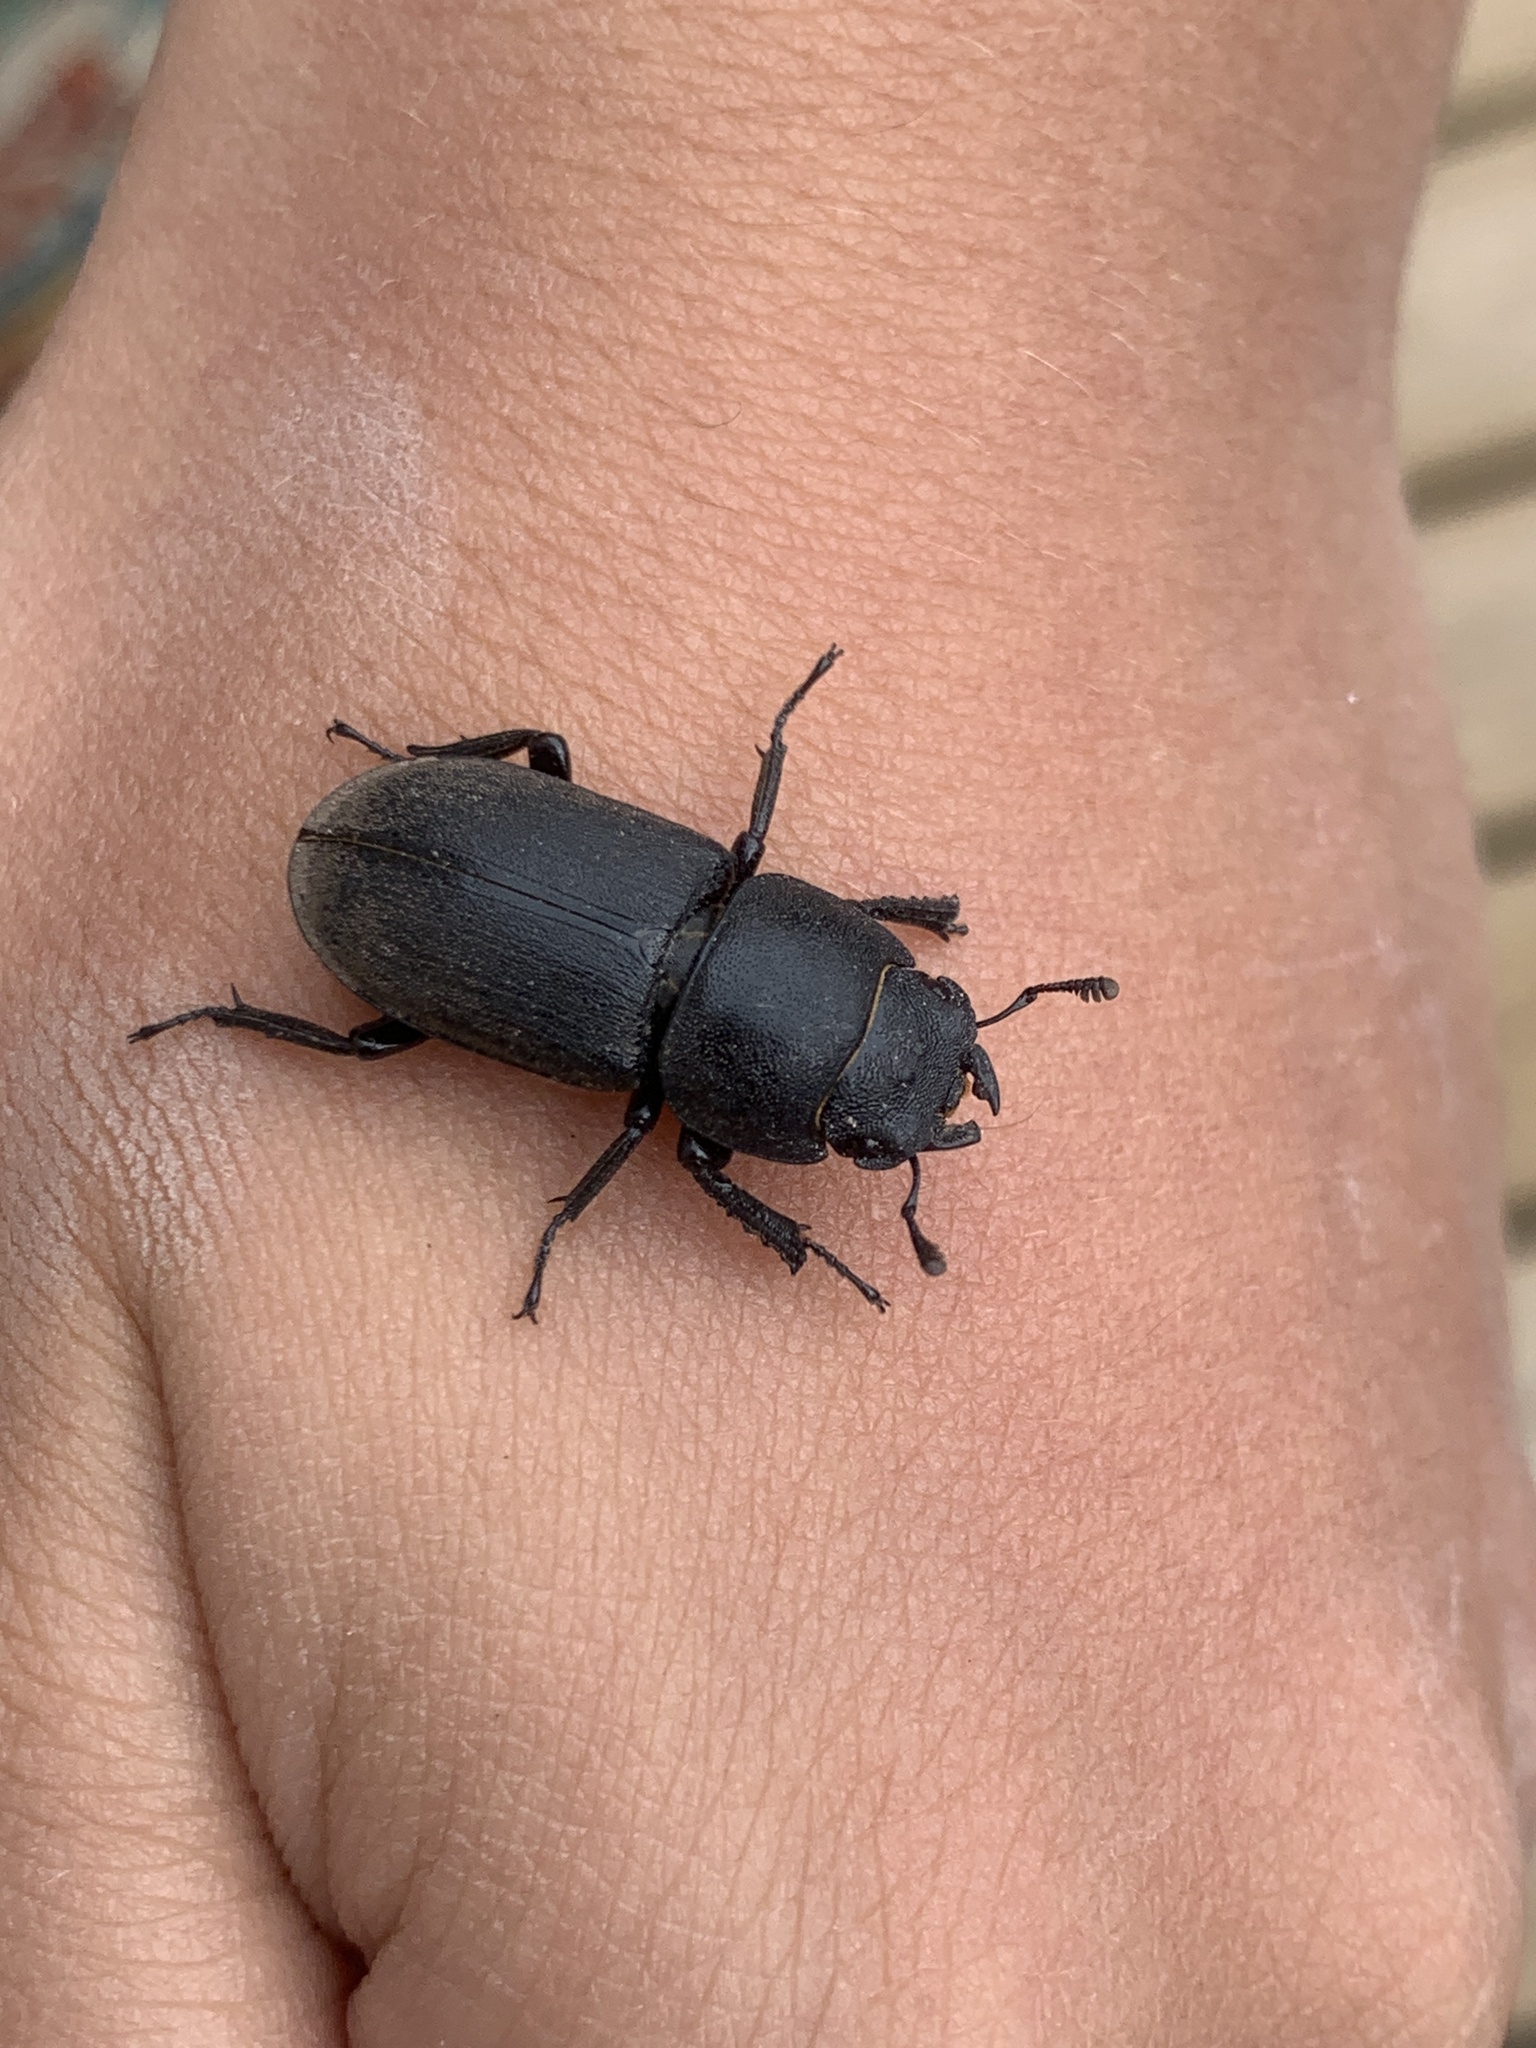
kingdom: Animalia
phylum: Arthropoda
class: Insecta
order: Coleoptera
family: Lucanidae
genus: Dorcus
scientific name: Dorcus parallelipipedus
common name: Lesser stag beetle
